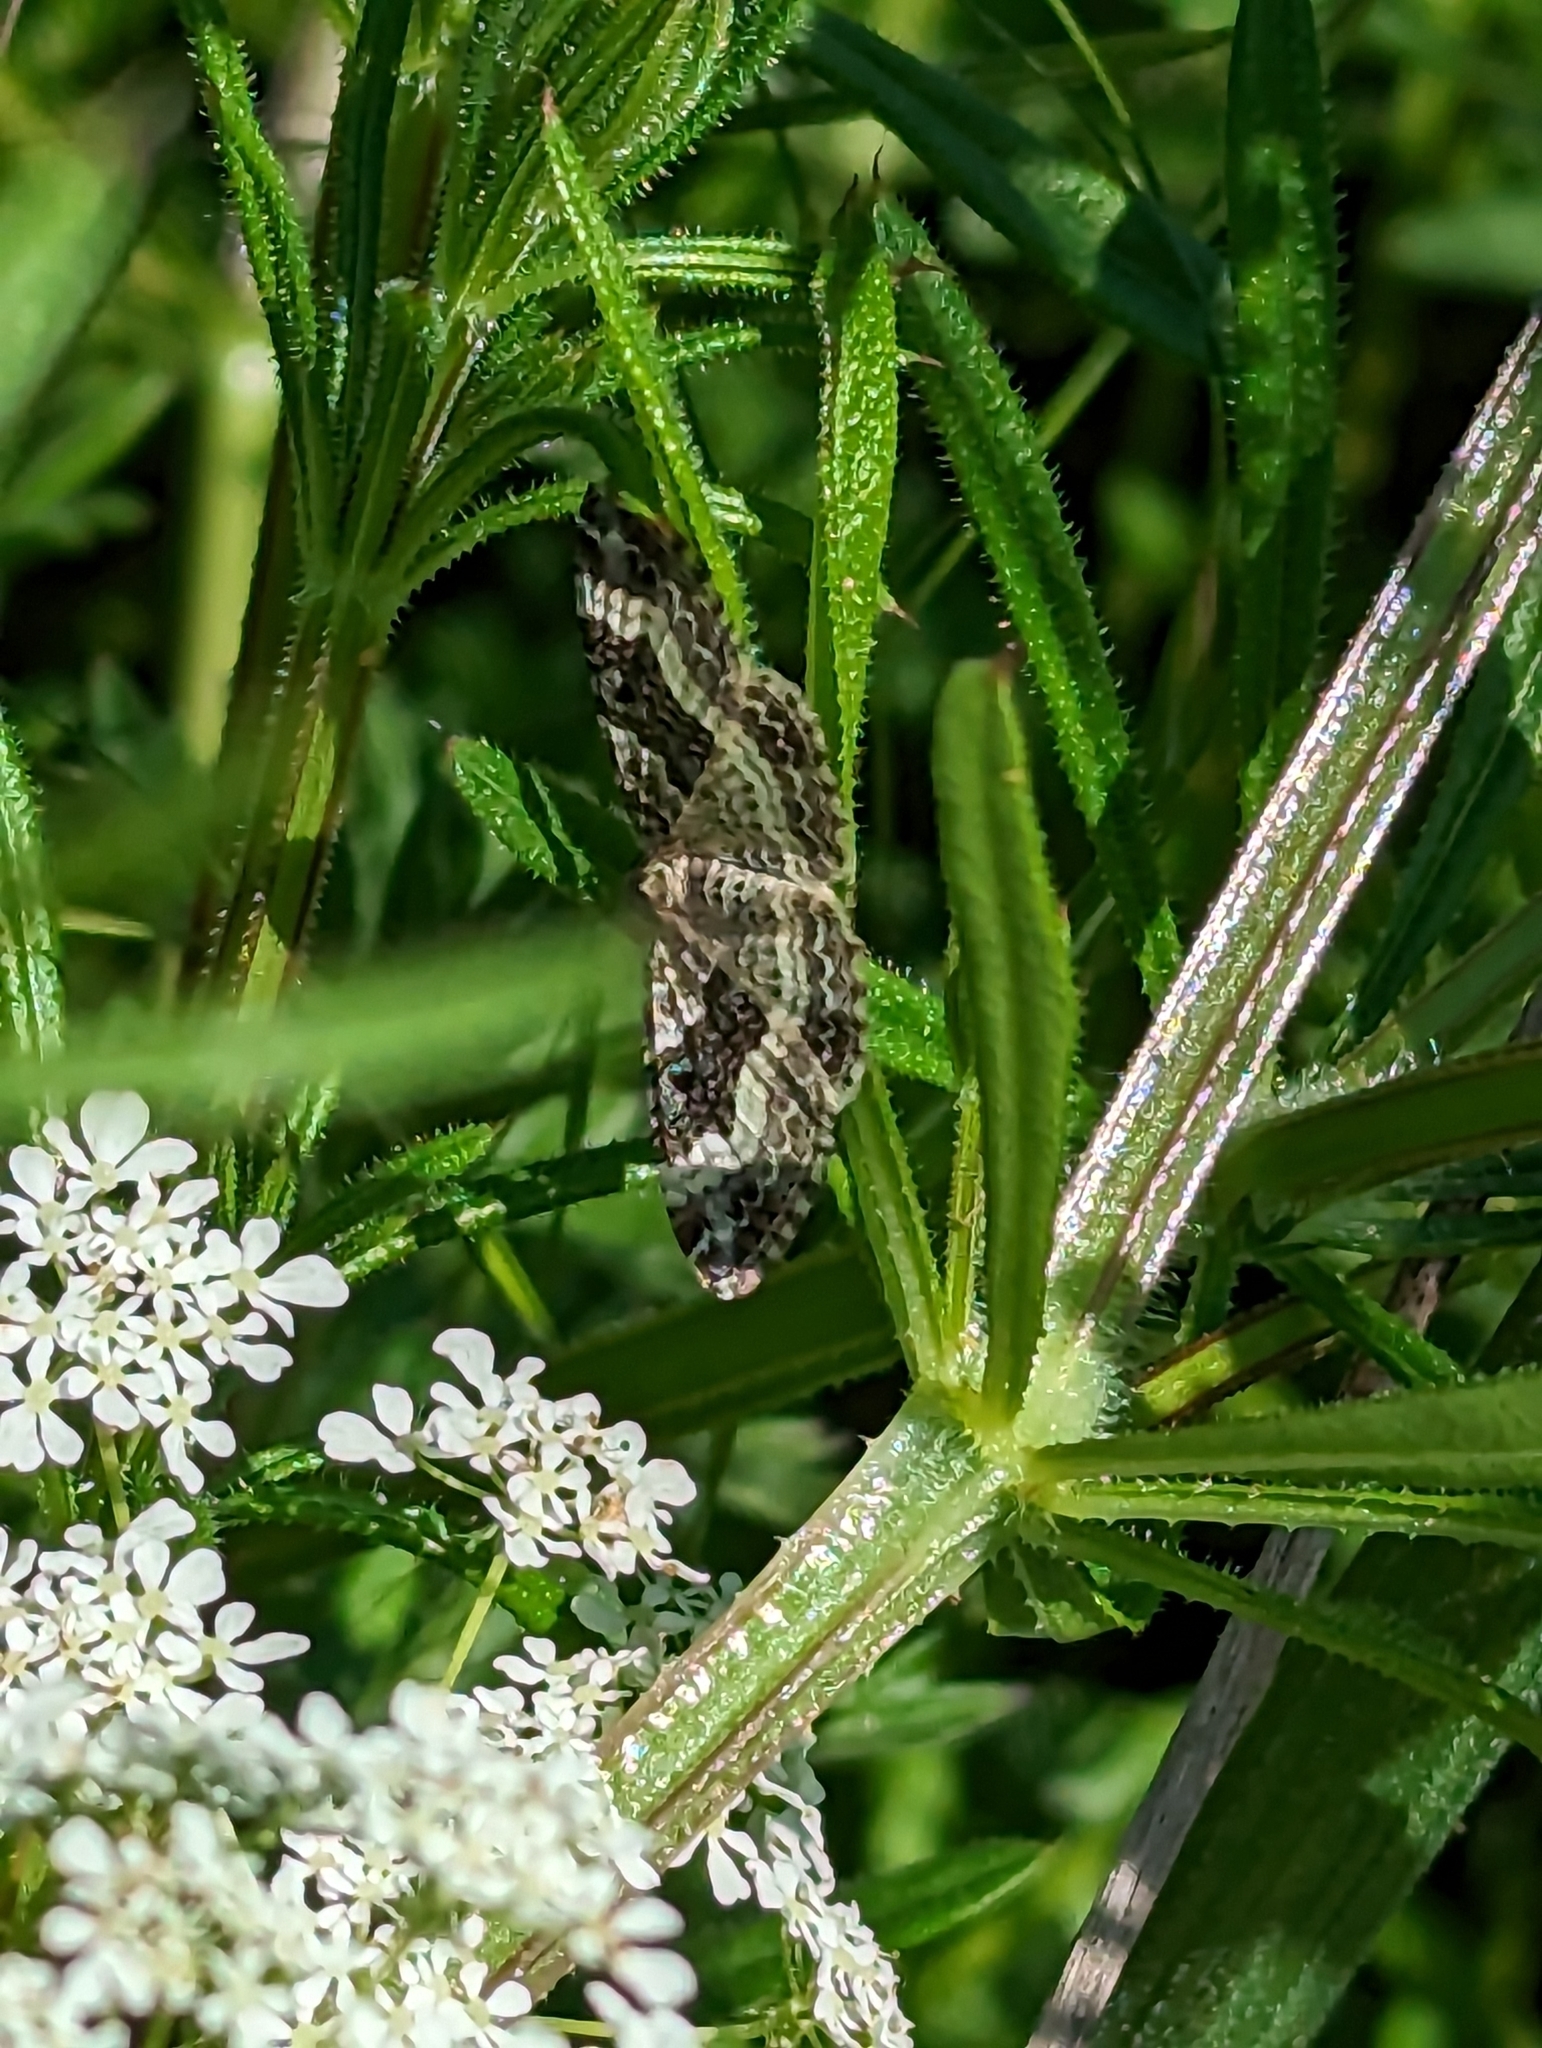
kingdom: Animalia
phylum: Arthropoda
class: Insecta
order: Lepidoptera
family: Geometridae
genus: Epirrhoe
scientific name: Epirrhoe alternata
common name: Common carpet
